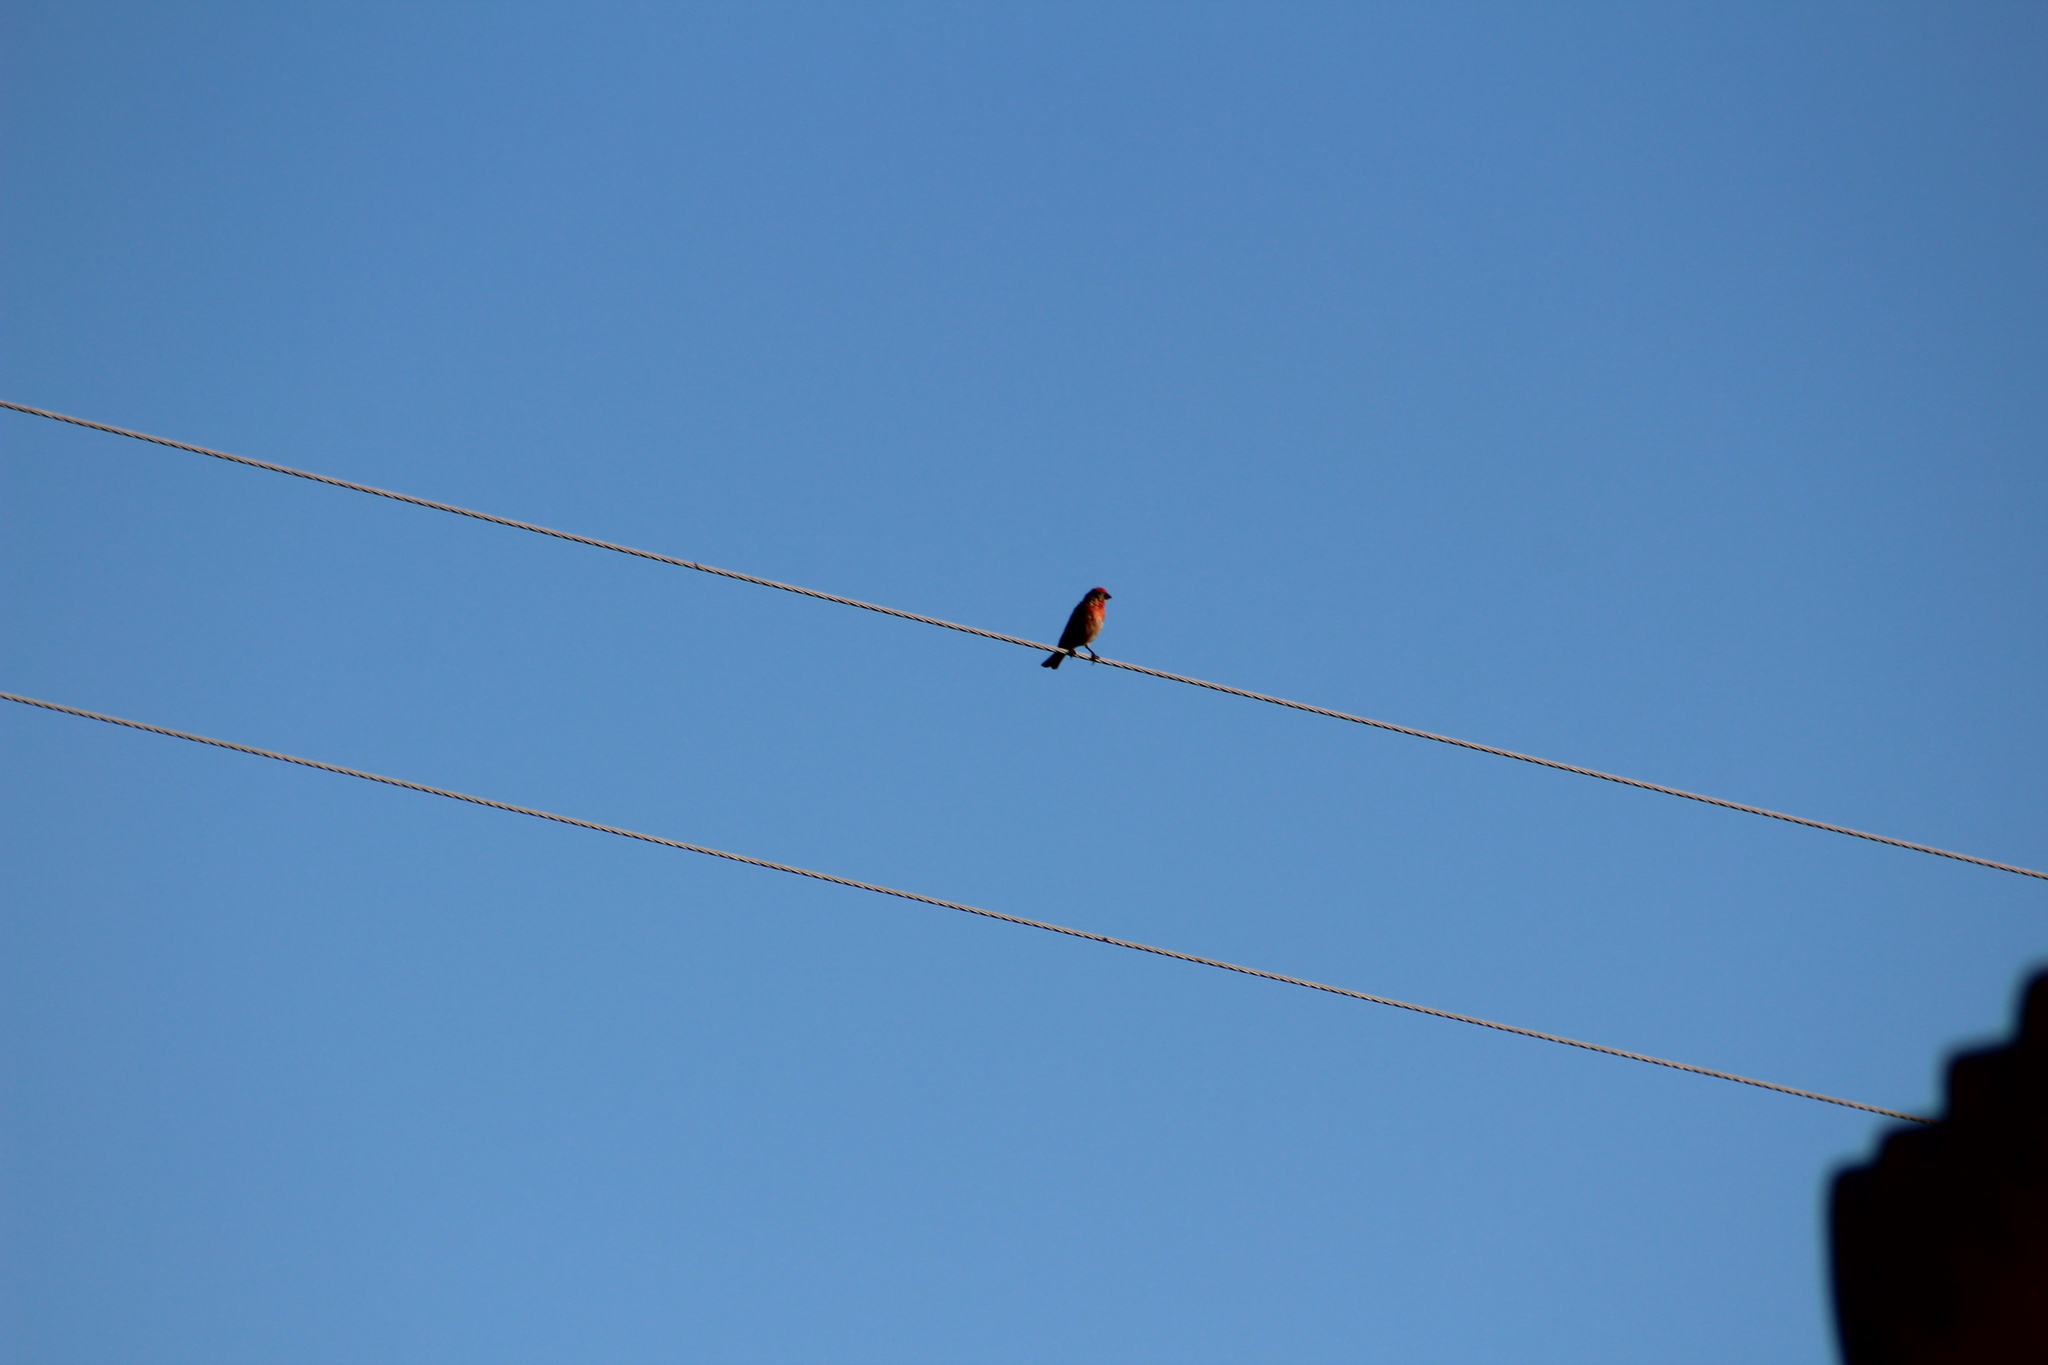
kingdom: Animalia
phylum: Chordata
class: Aves
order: Passeriformes
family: Fringillidae
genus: Haemorhous
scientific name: Haemorhous mexicanus
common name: House finch
